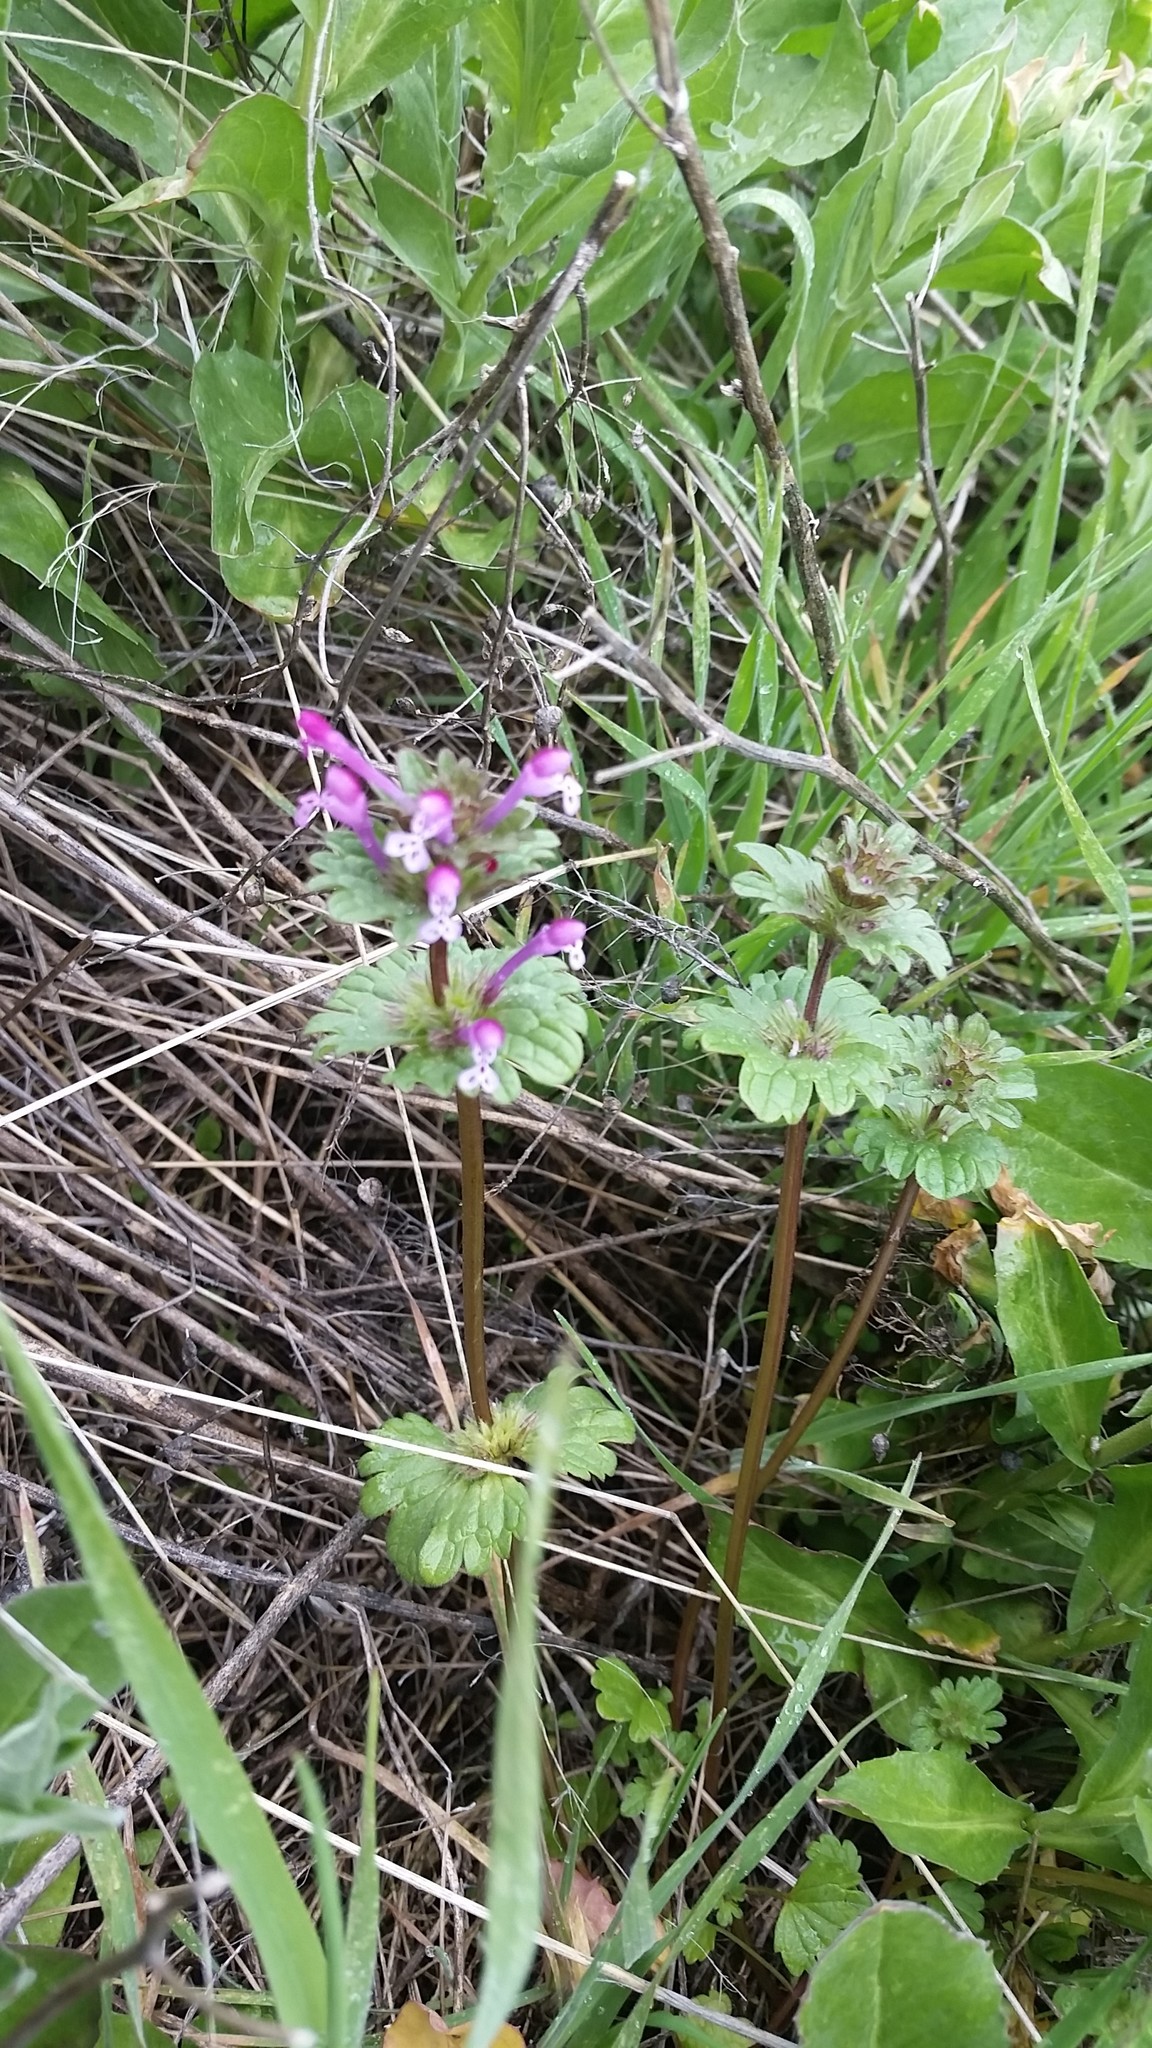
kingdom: Plantae
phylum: Tracheophyta
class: Magnoliopsida
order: Lamiales
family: Lamiaceae
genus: Lamium
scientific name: Lamium amplexicaule
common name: Henbit dead-nettle
